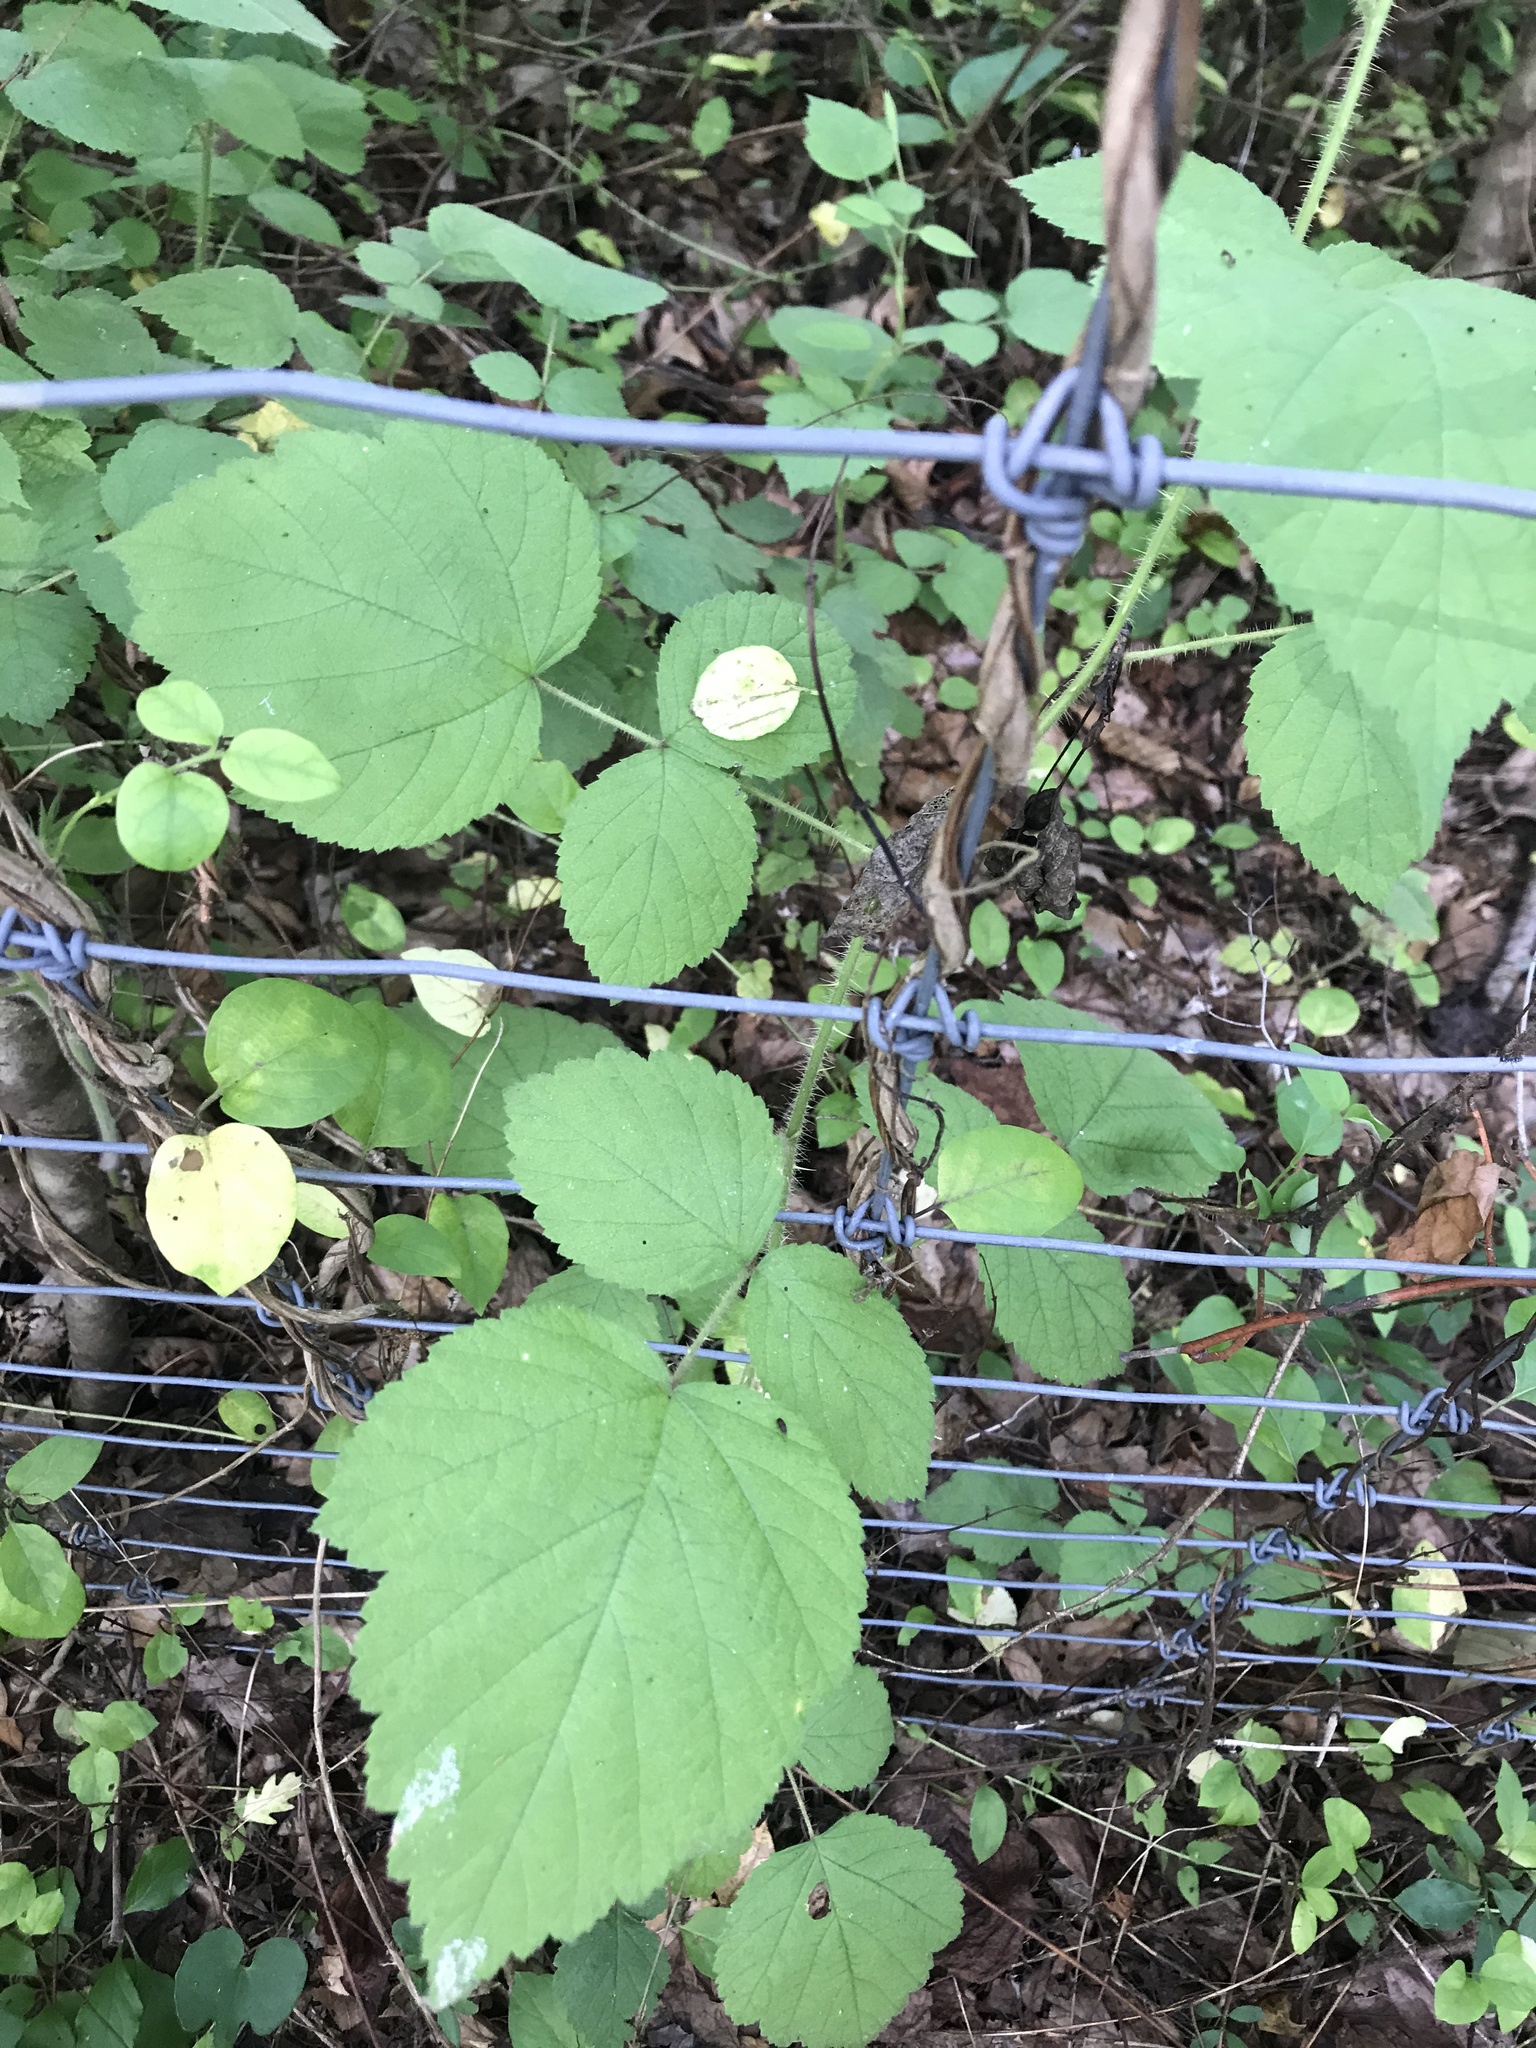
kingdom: Plantae
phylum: Tracheophyta
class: Magnoliopsida
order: Rosales
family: Rosaceae
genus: Rubus
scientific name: Rubus phoenicolasius
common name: Japanese wineberry
